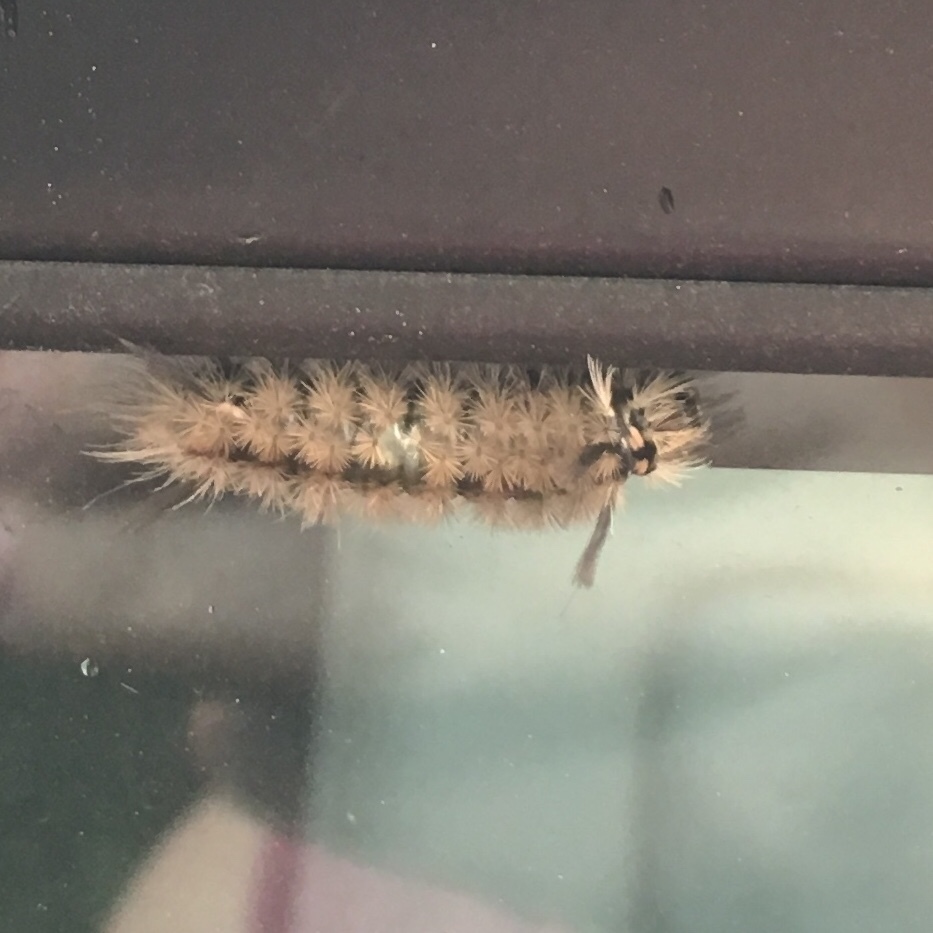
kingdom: Animalia
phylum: Arthropoda
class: Insecta
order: Lepidoptera
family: Erebidae
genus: Halysidota
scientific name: Halysidota tessellaris
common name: Banded tussock moth
